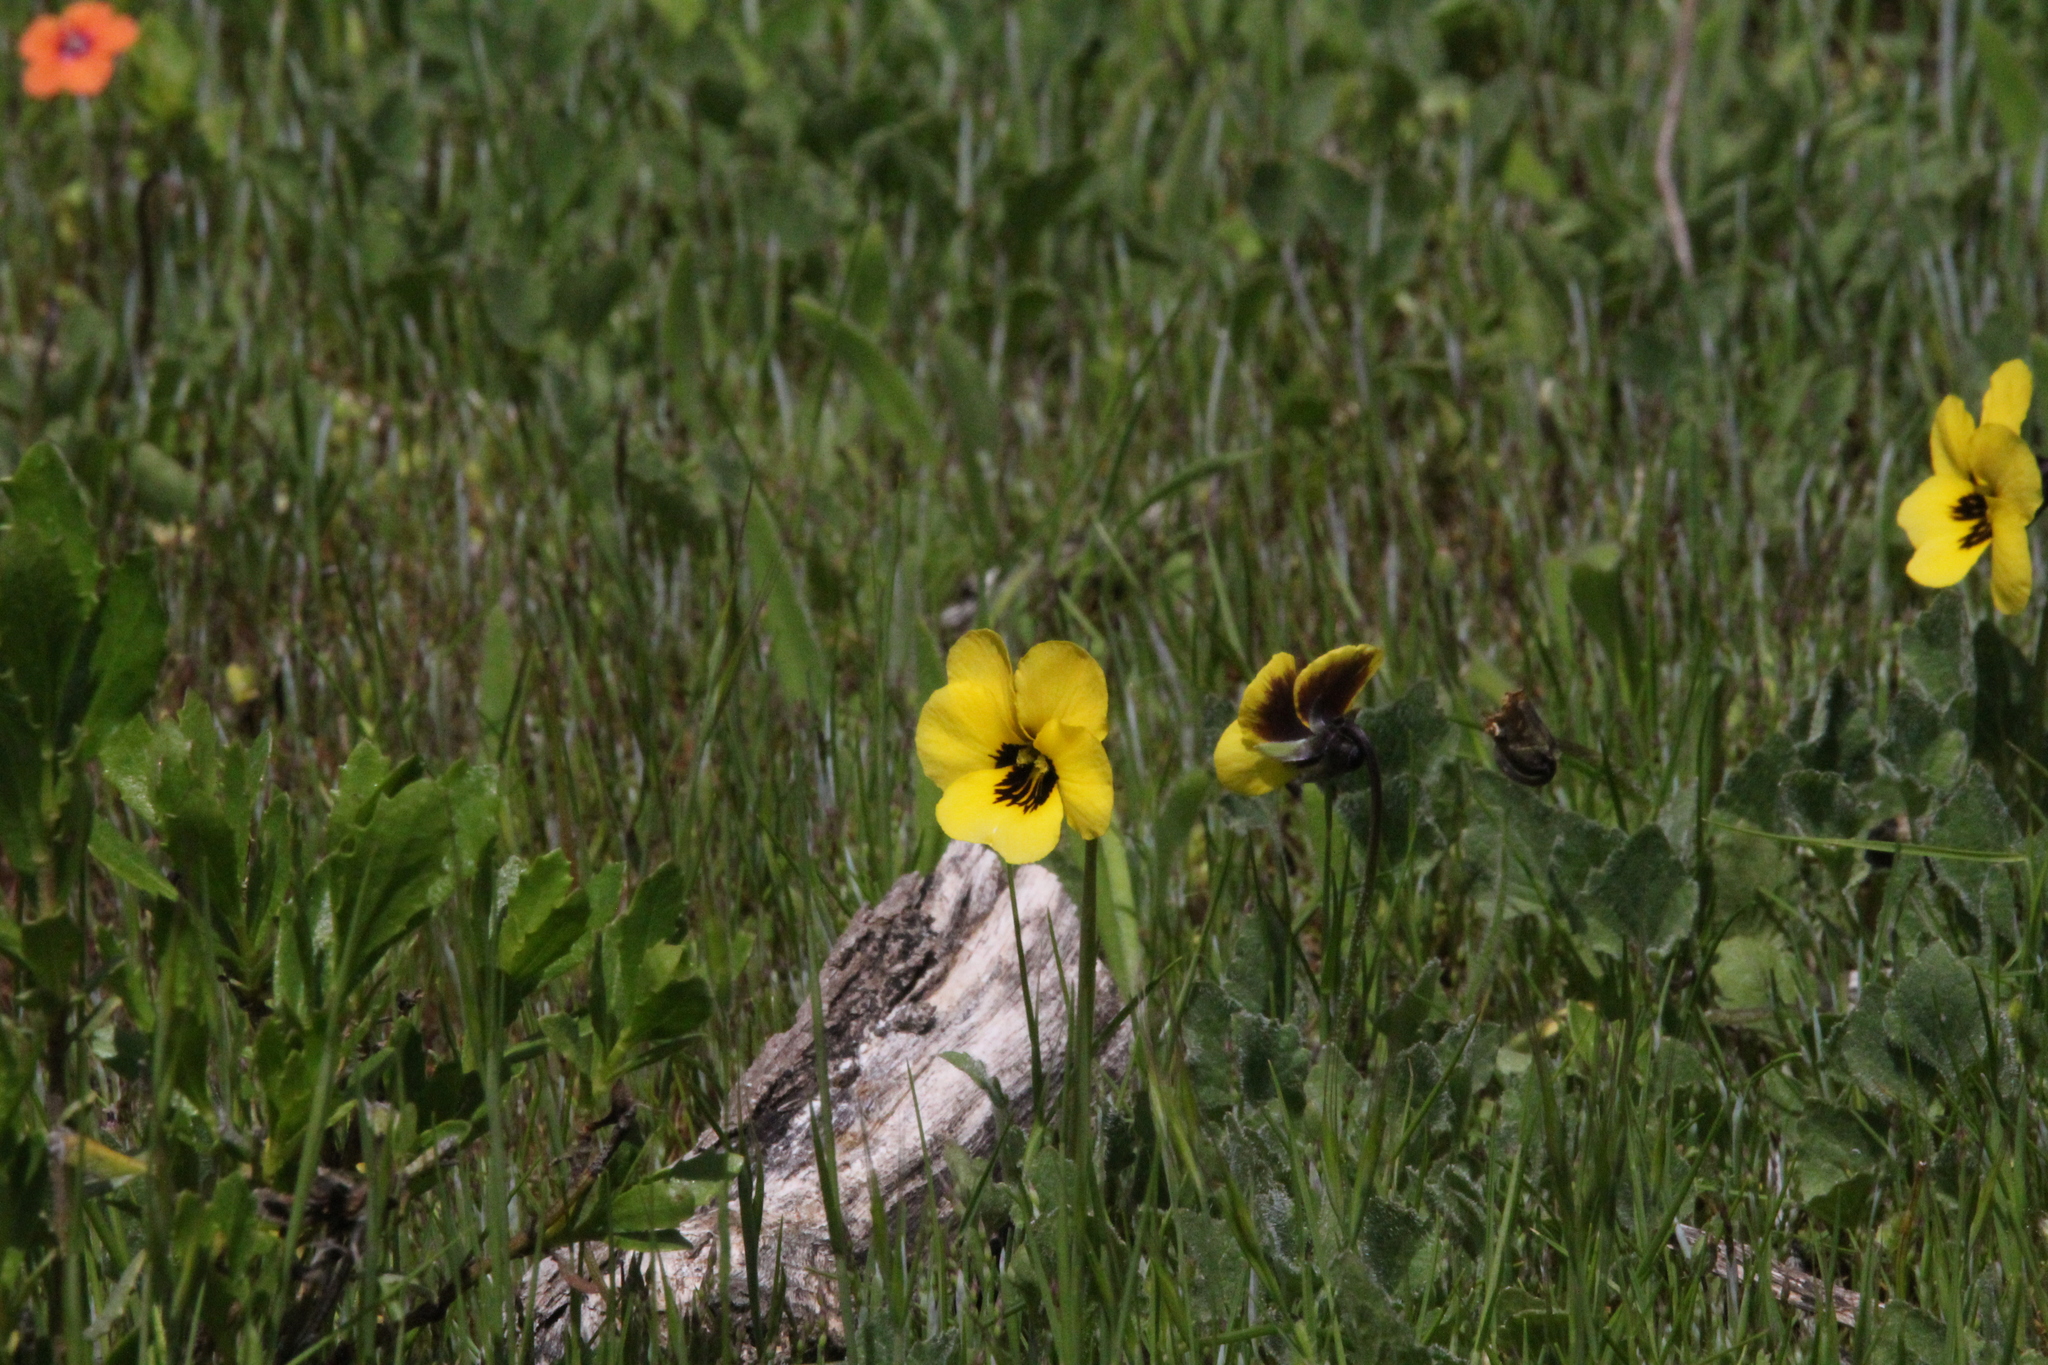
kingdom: Plantae
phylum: Tracheophyta
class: Magnoliopsida
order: Malpighiales
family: Violaceae
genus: Viola
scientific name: Viola pedunculata
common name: California golden violet
